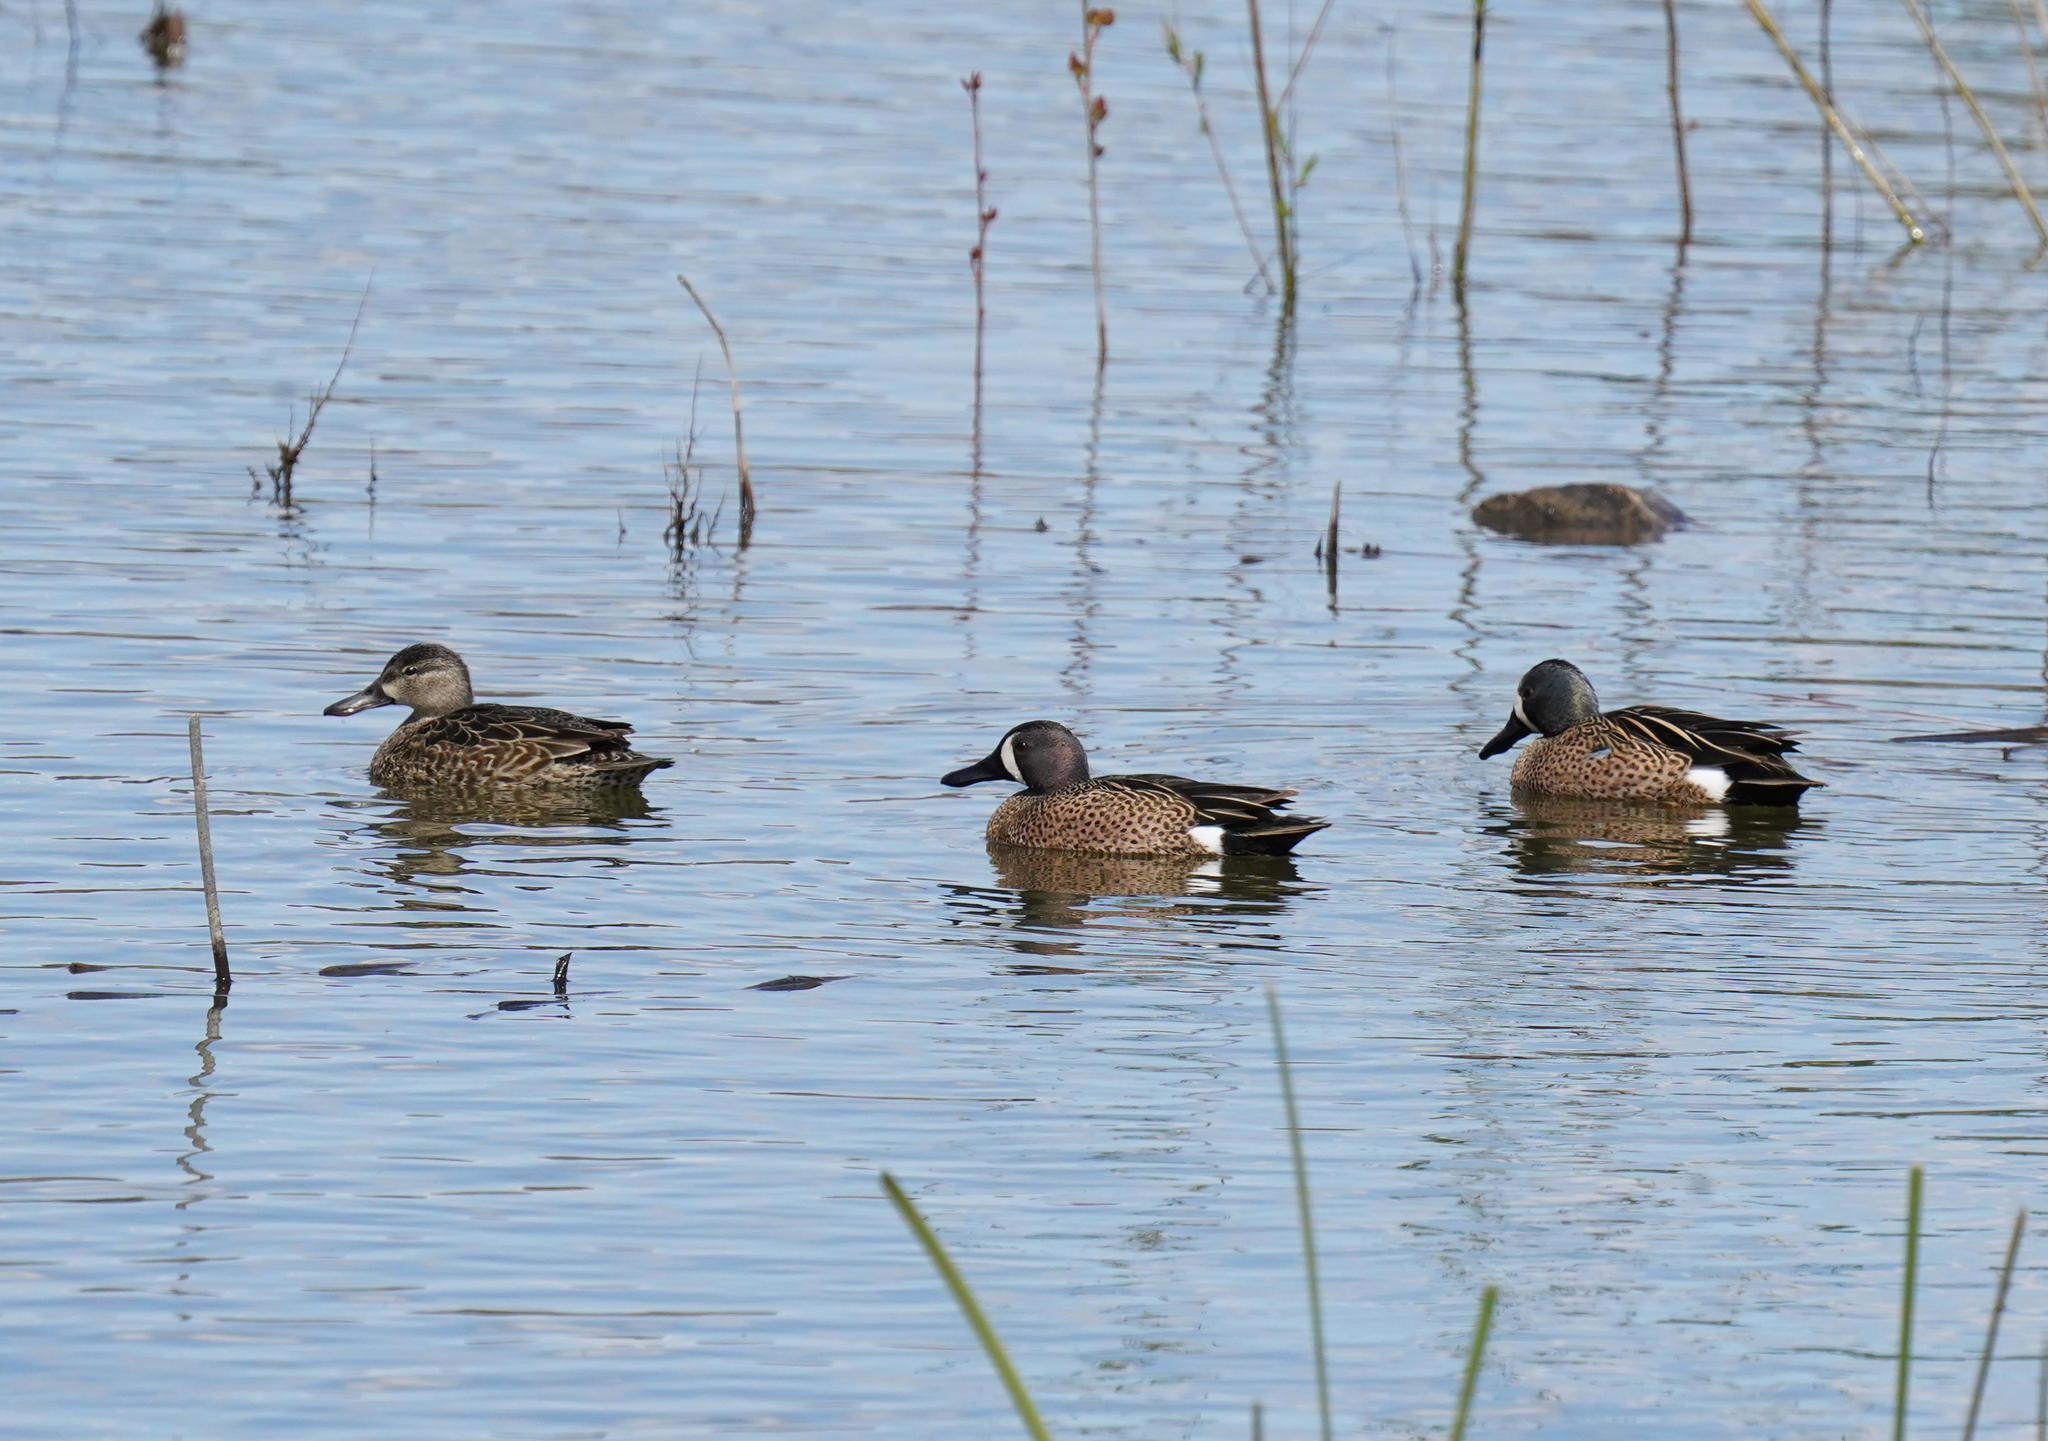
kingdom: Animalia
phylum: Chordata
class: Aves
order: Anseriformes
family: Anatidae
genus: Spatula
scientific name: Spatula discors
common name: Blue-winged teal
